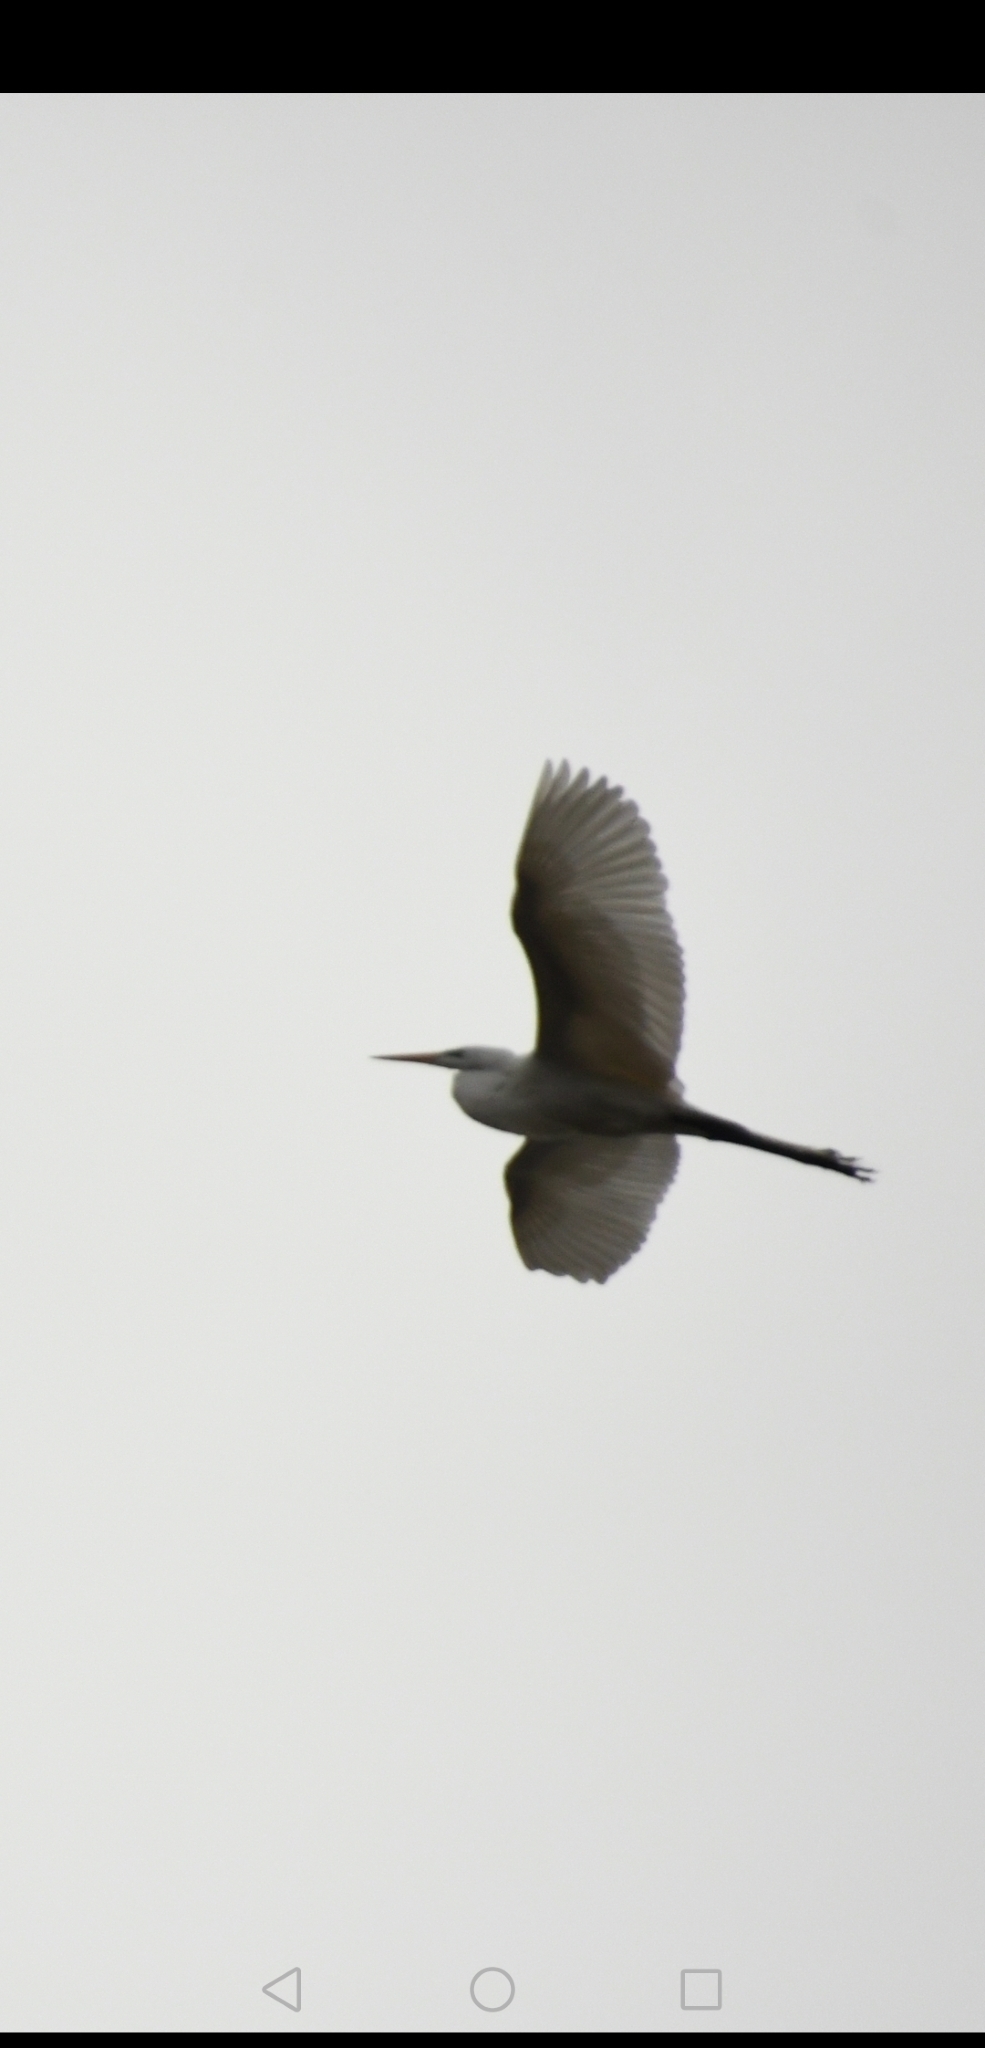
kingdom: Animalia
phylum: Chordata
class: Aves
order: Pelecaniformes
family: Ardeidae
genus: Ardea
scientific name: Ardea alba
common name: Great egret
